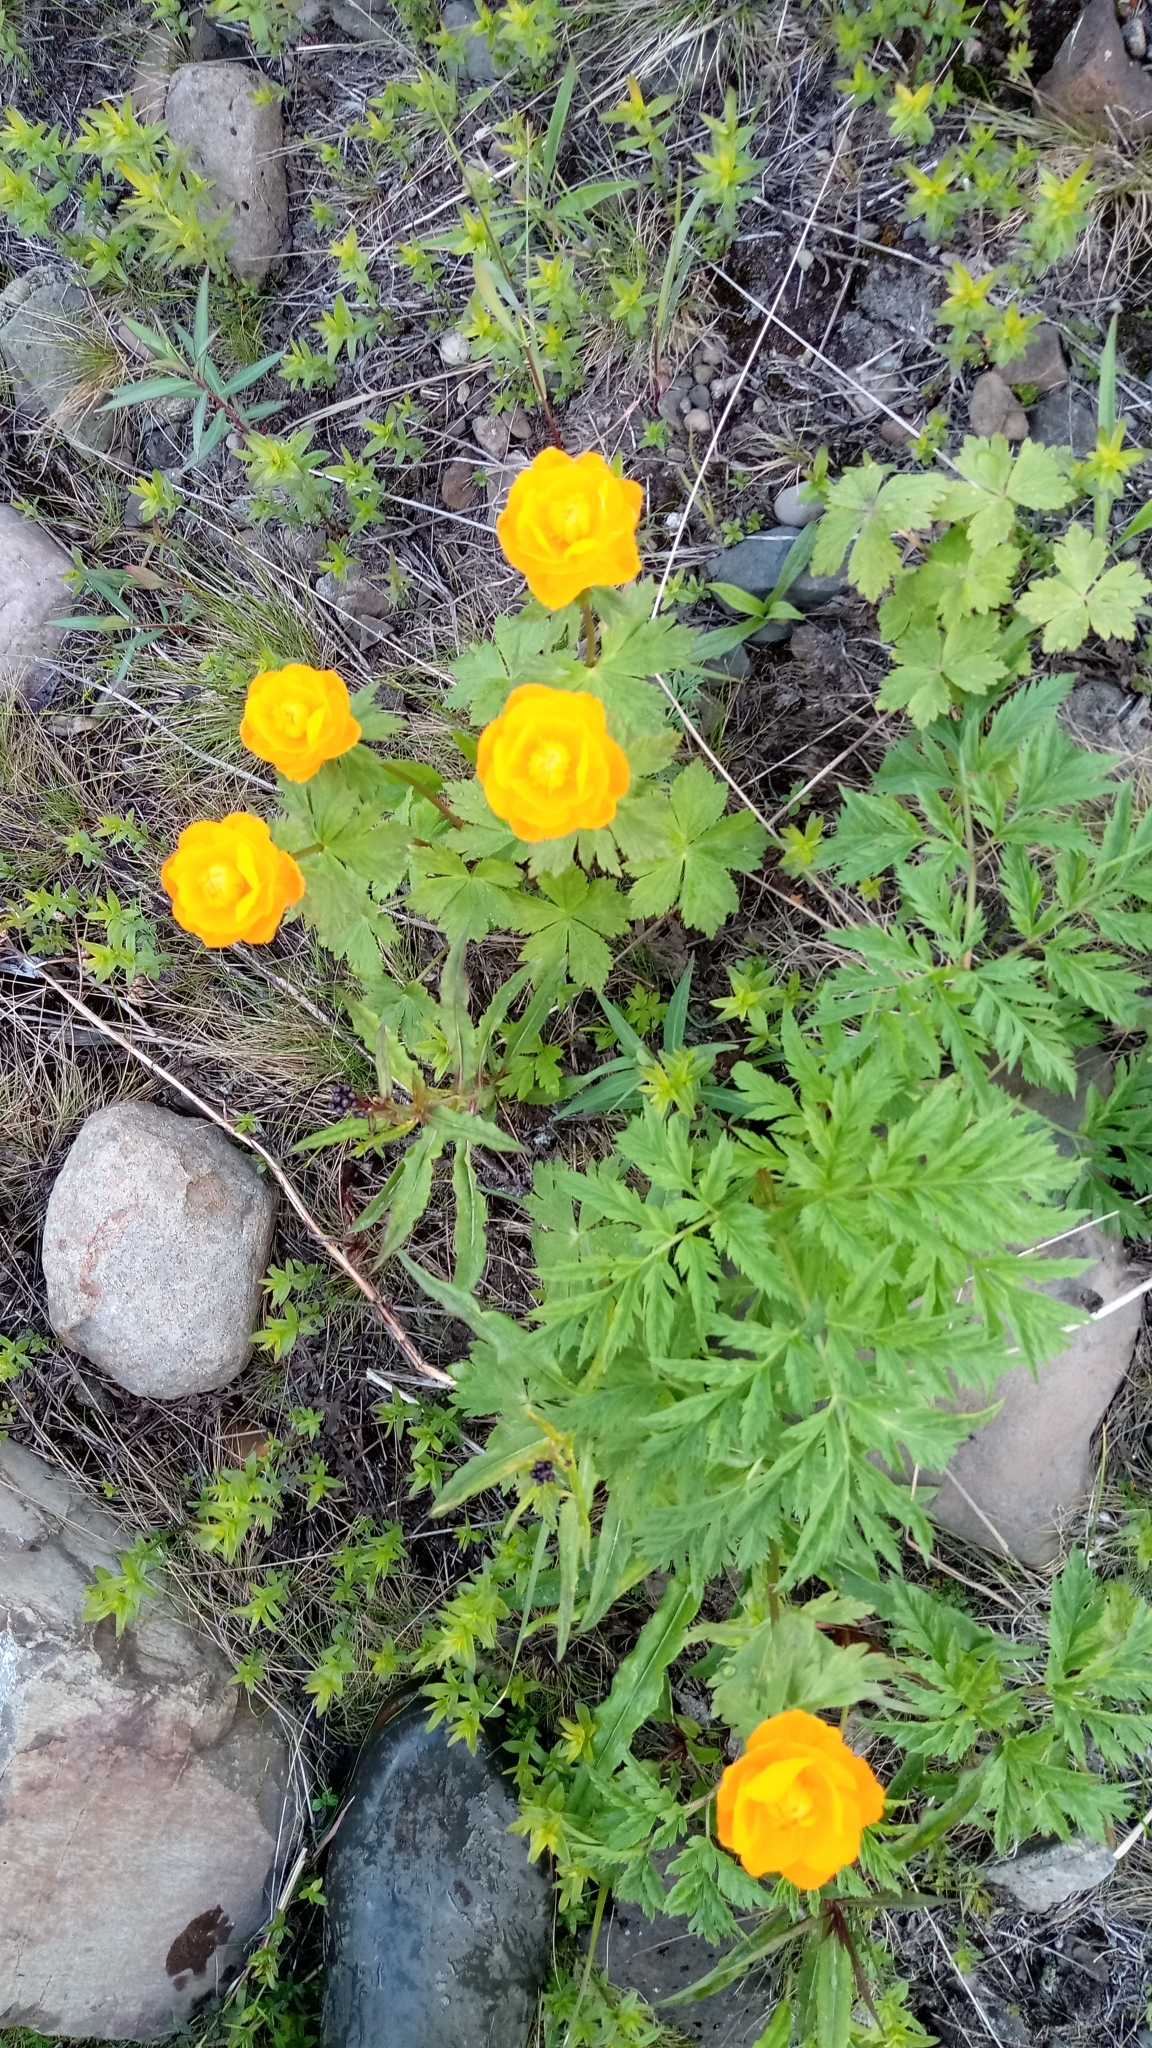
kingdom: Plantae
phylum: Tracheophyta
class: Magnoliopsida
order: Ranunculales
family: Ranunculaceae
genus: Trollius
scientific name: Trollius asiaticus
